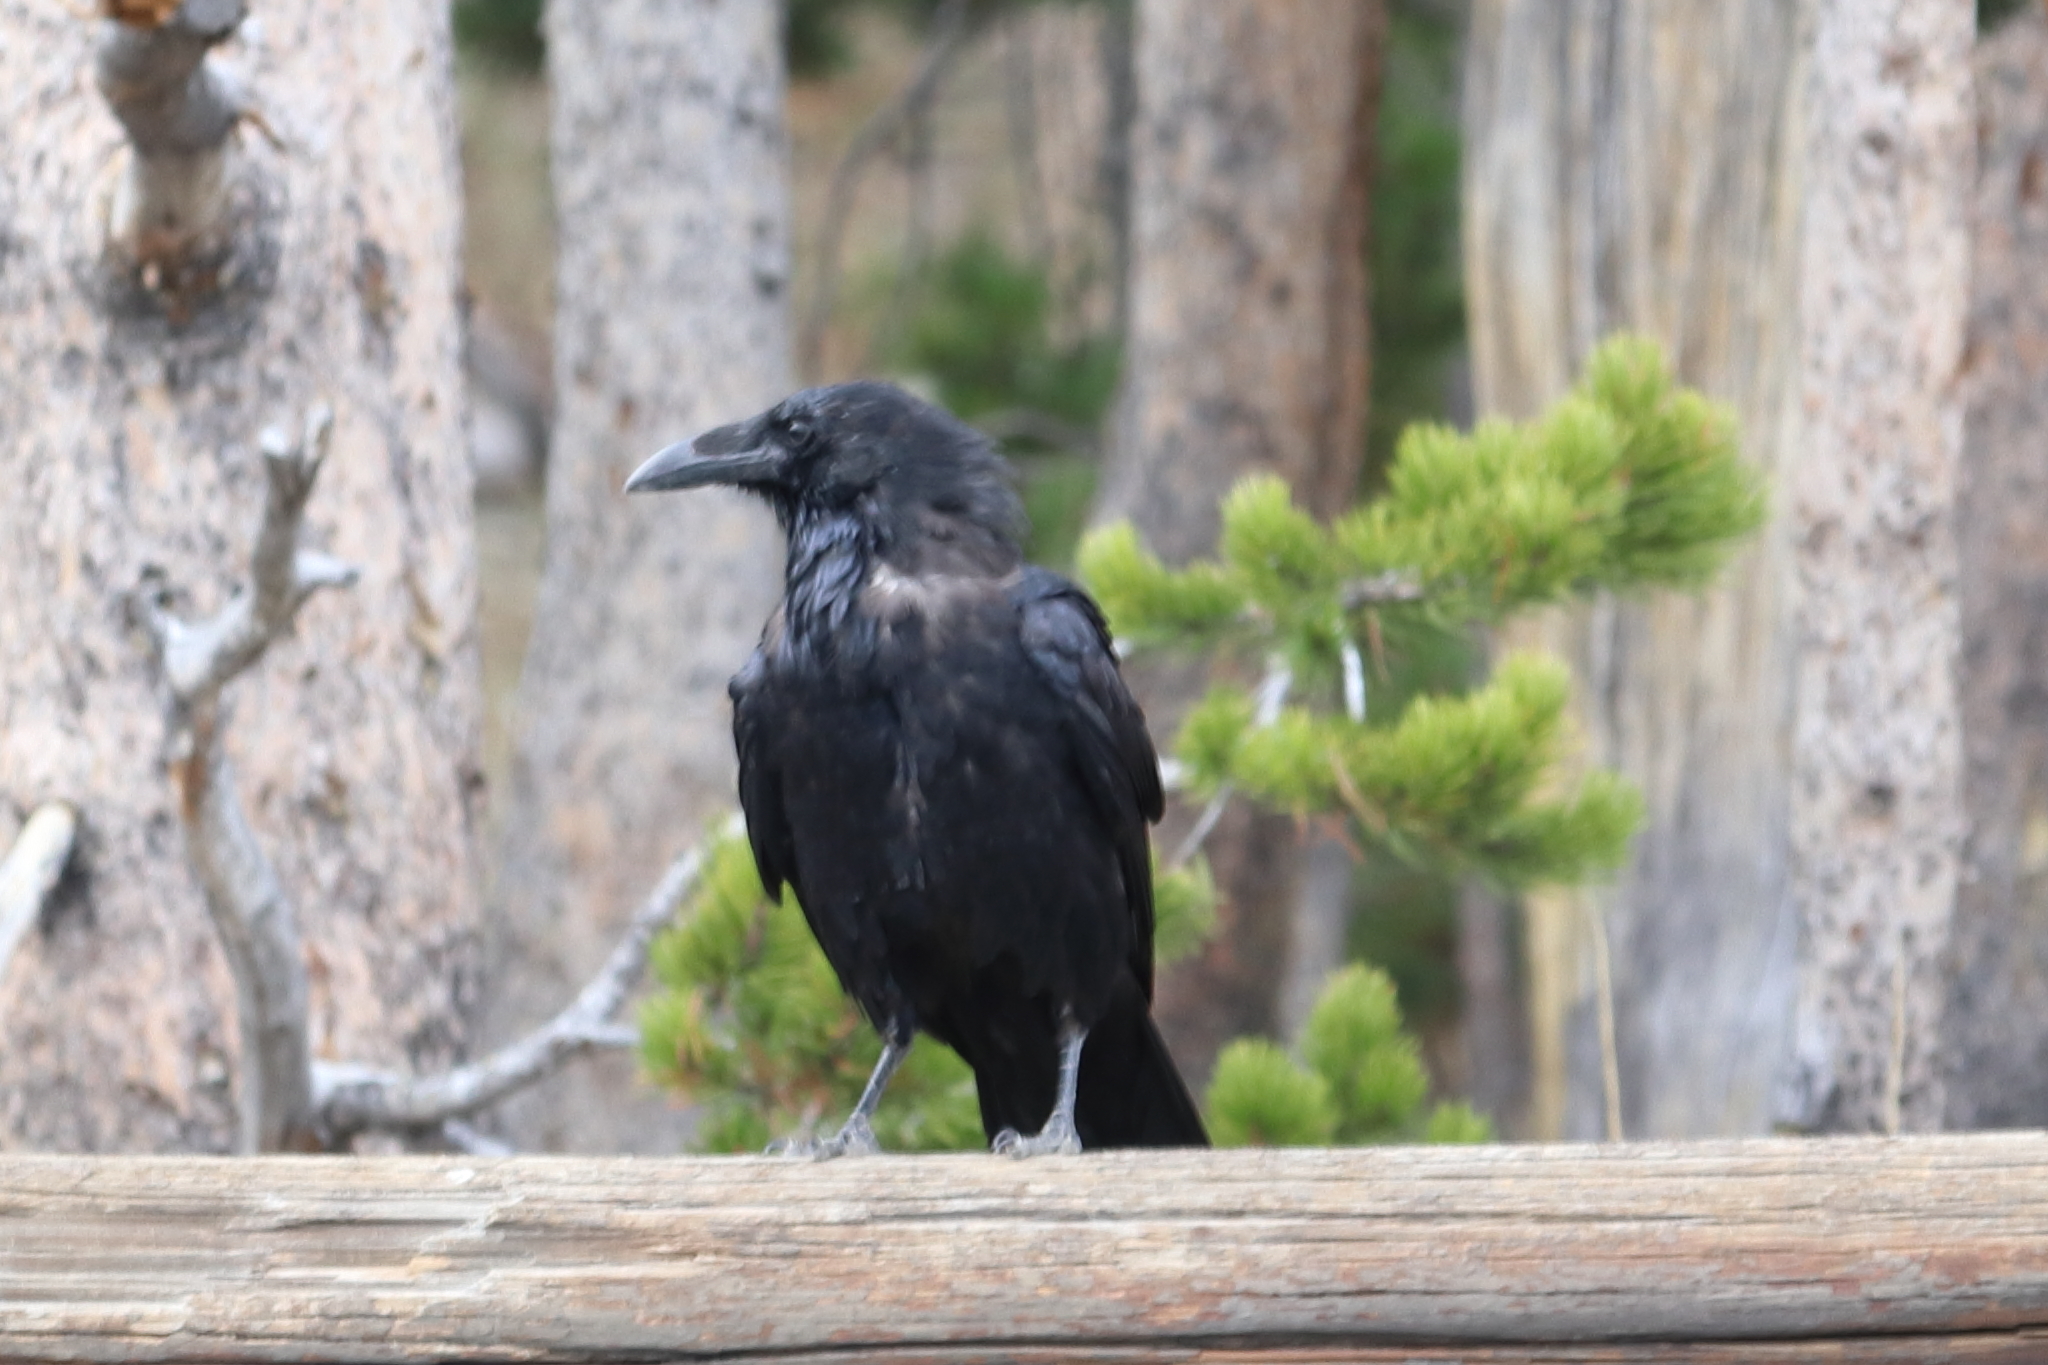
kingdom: Animalia
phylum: Chordata
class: Aves
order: Passeriformes
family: Corvidae
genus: Corvus
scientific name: Corvus corax
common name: Common raven
